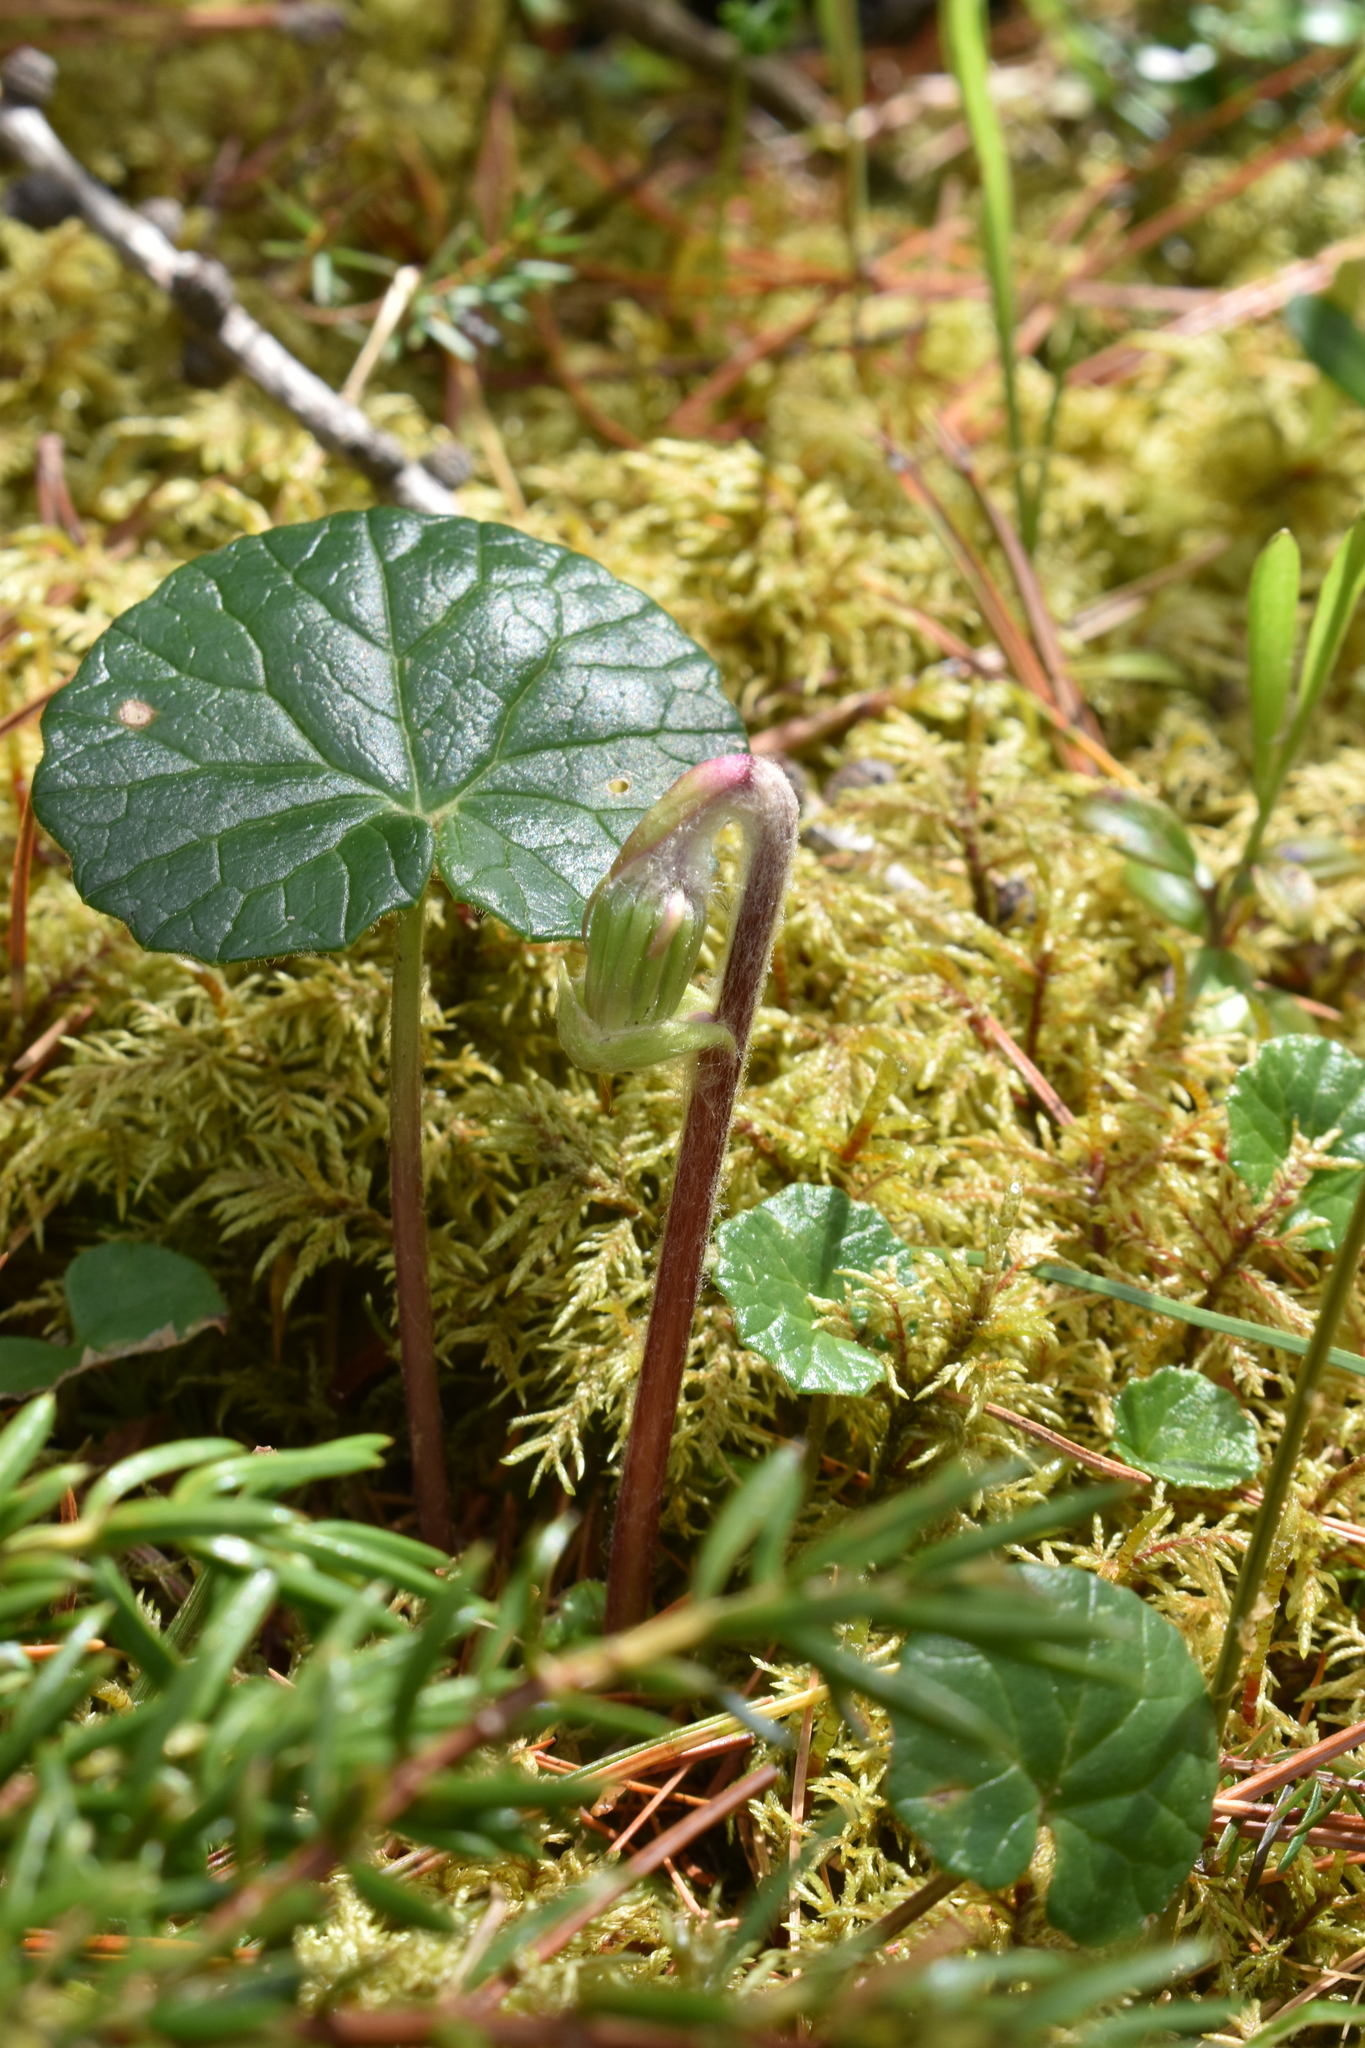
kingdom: Plantae
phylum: Tracheophyta
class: Magnoliopsida
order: Asterales
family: Asteraceae
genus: Homogyne
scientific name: Homogyne alpina
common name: Purple colt's-foot
